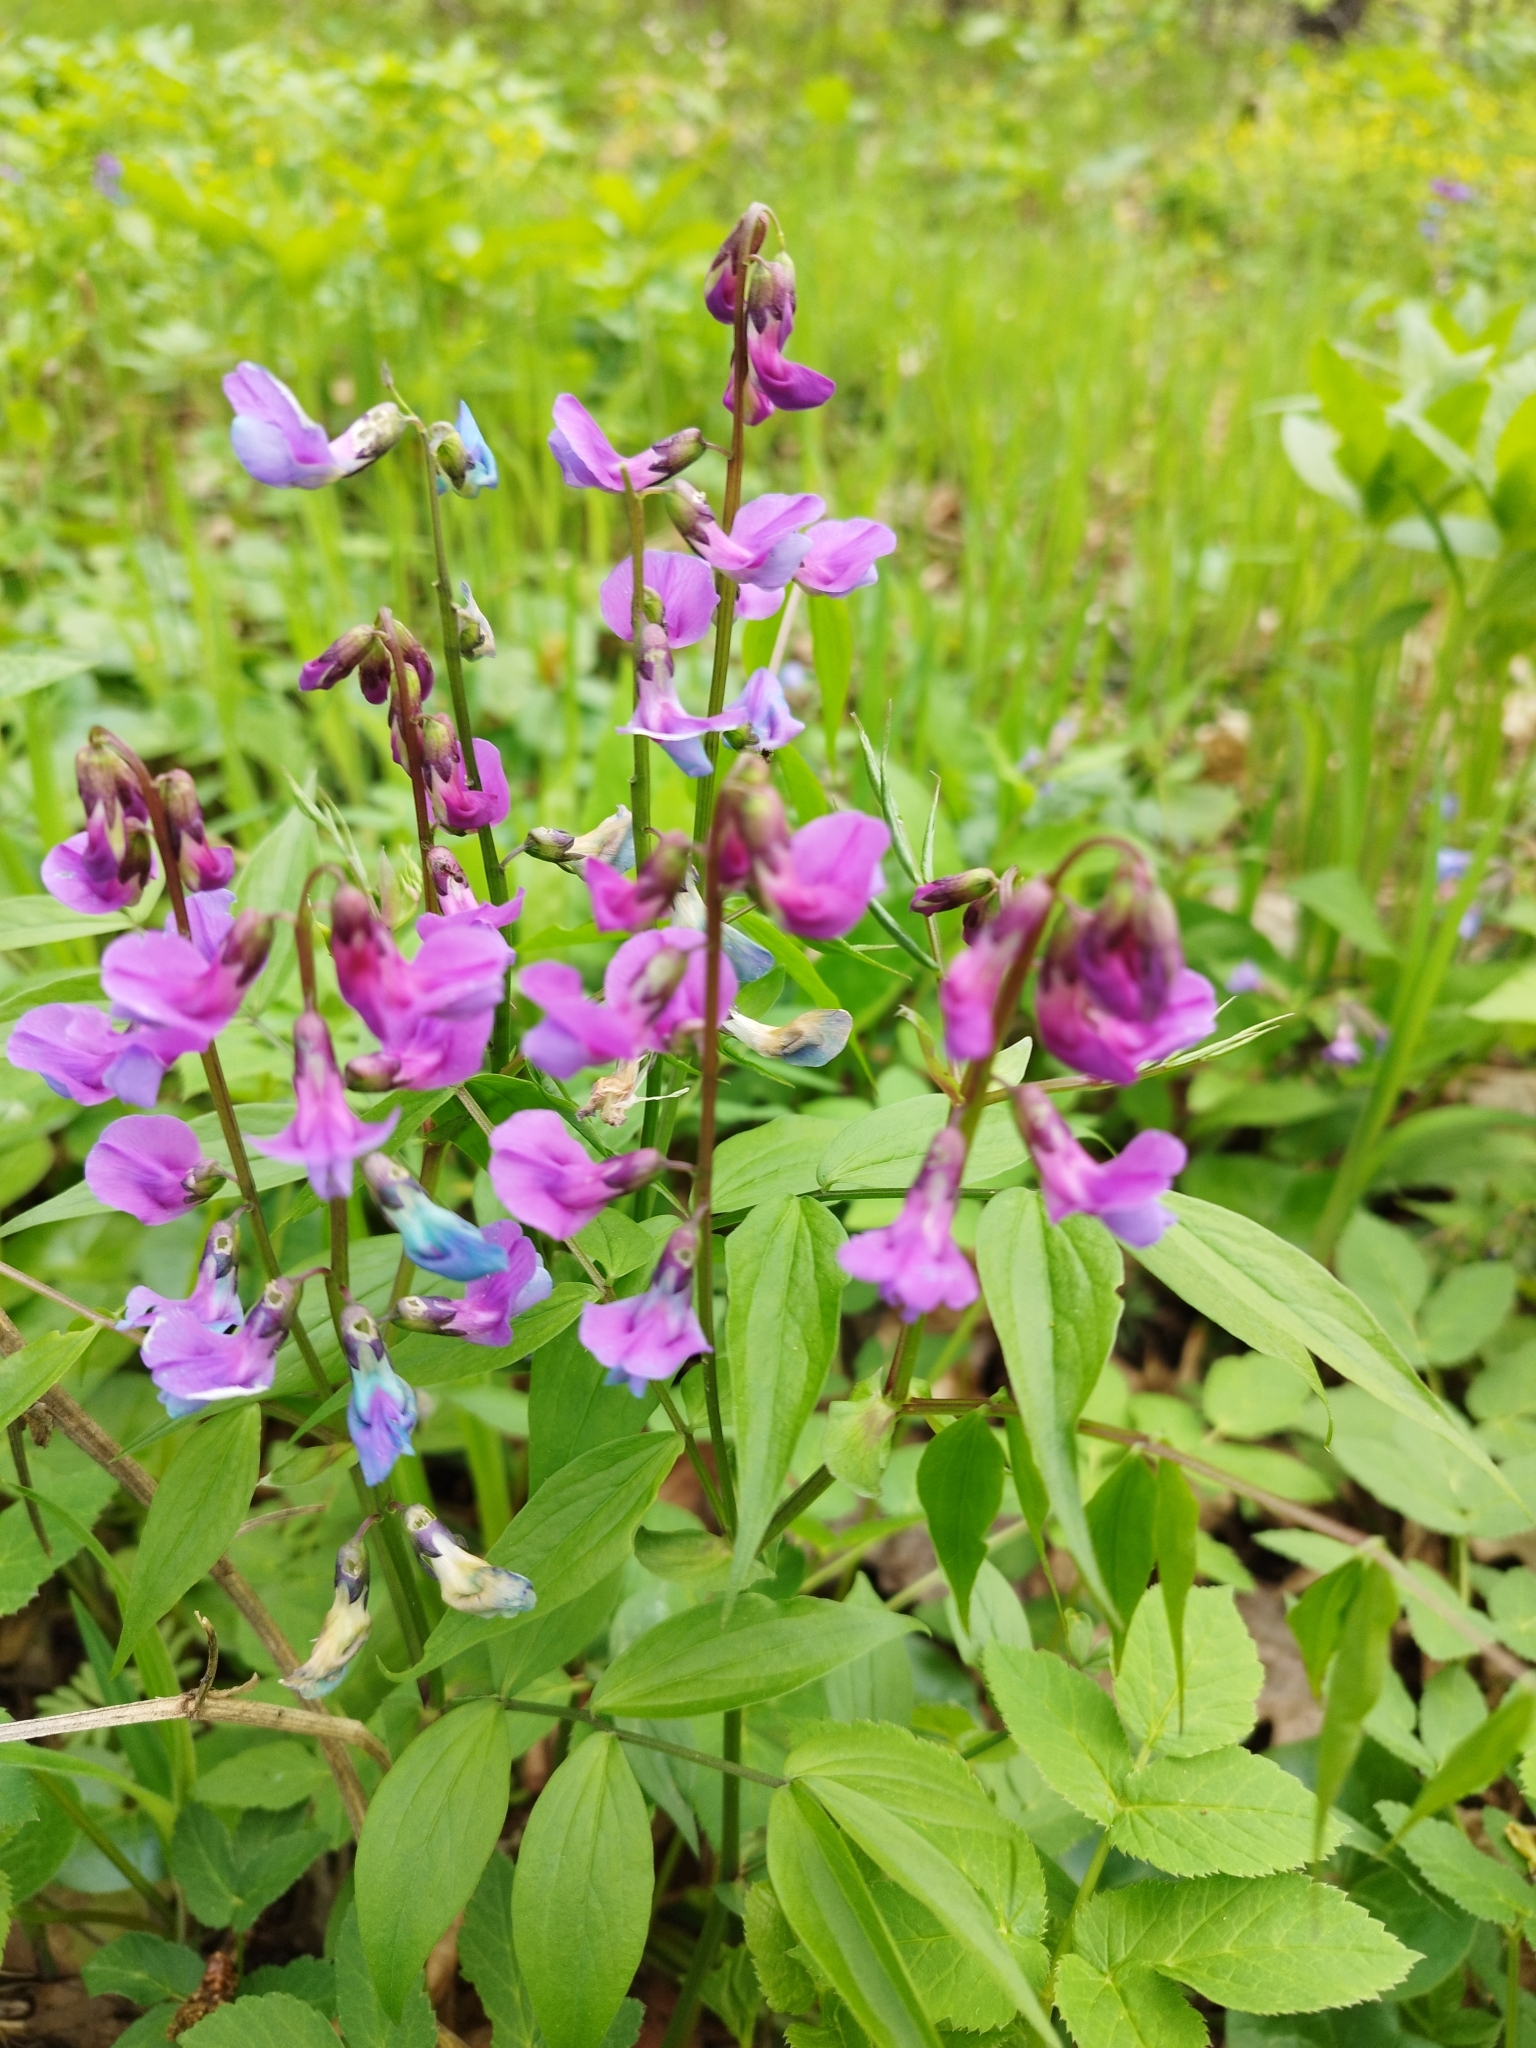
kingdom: Plantae
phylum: Tracheophyta
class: Magnoliopsida
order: Fabales
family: Fabaceae
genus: Lathyrus
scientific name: Lathyrus vernus
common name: Spring pea
